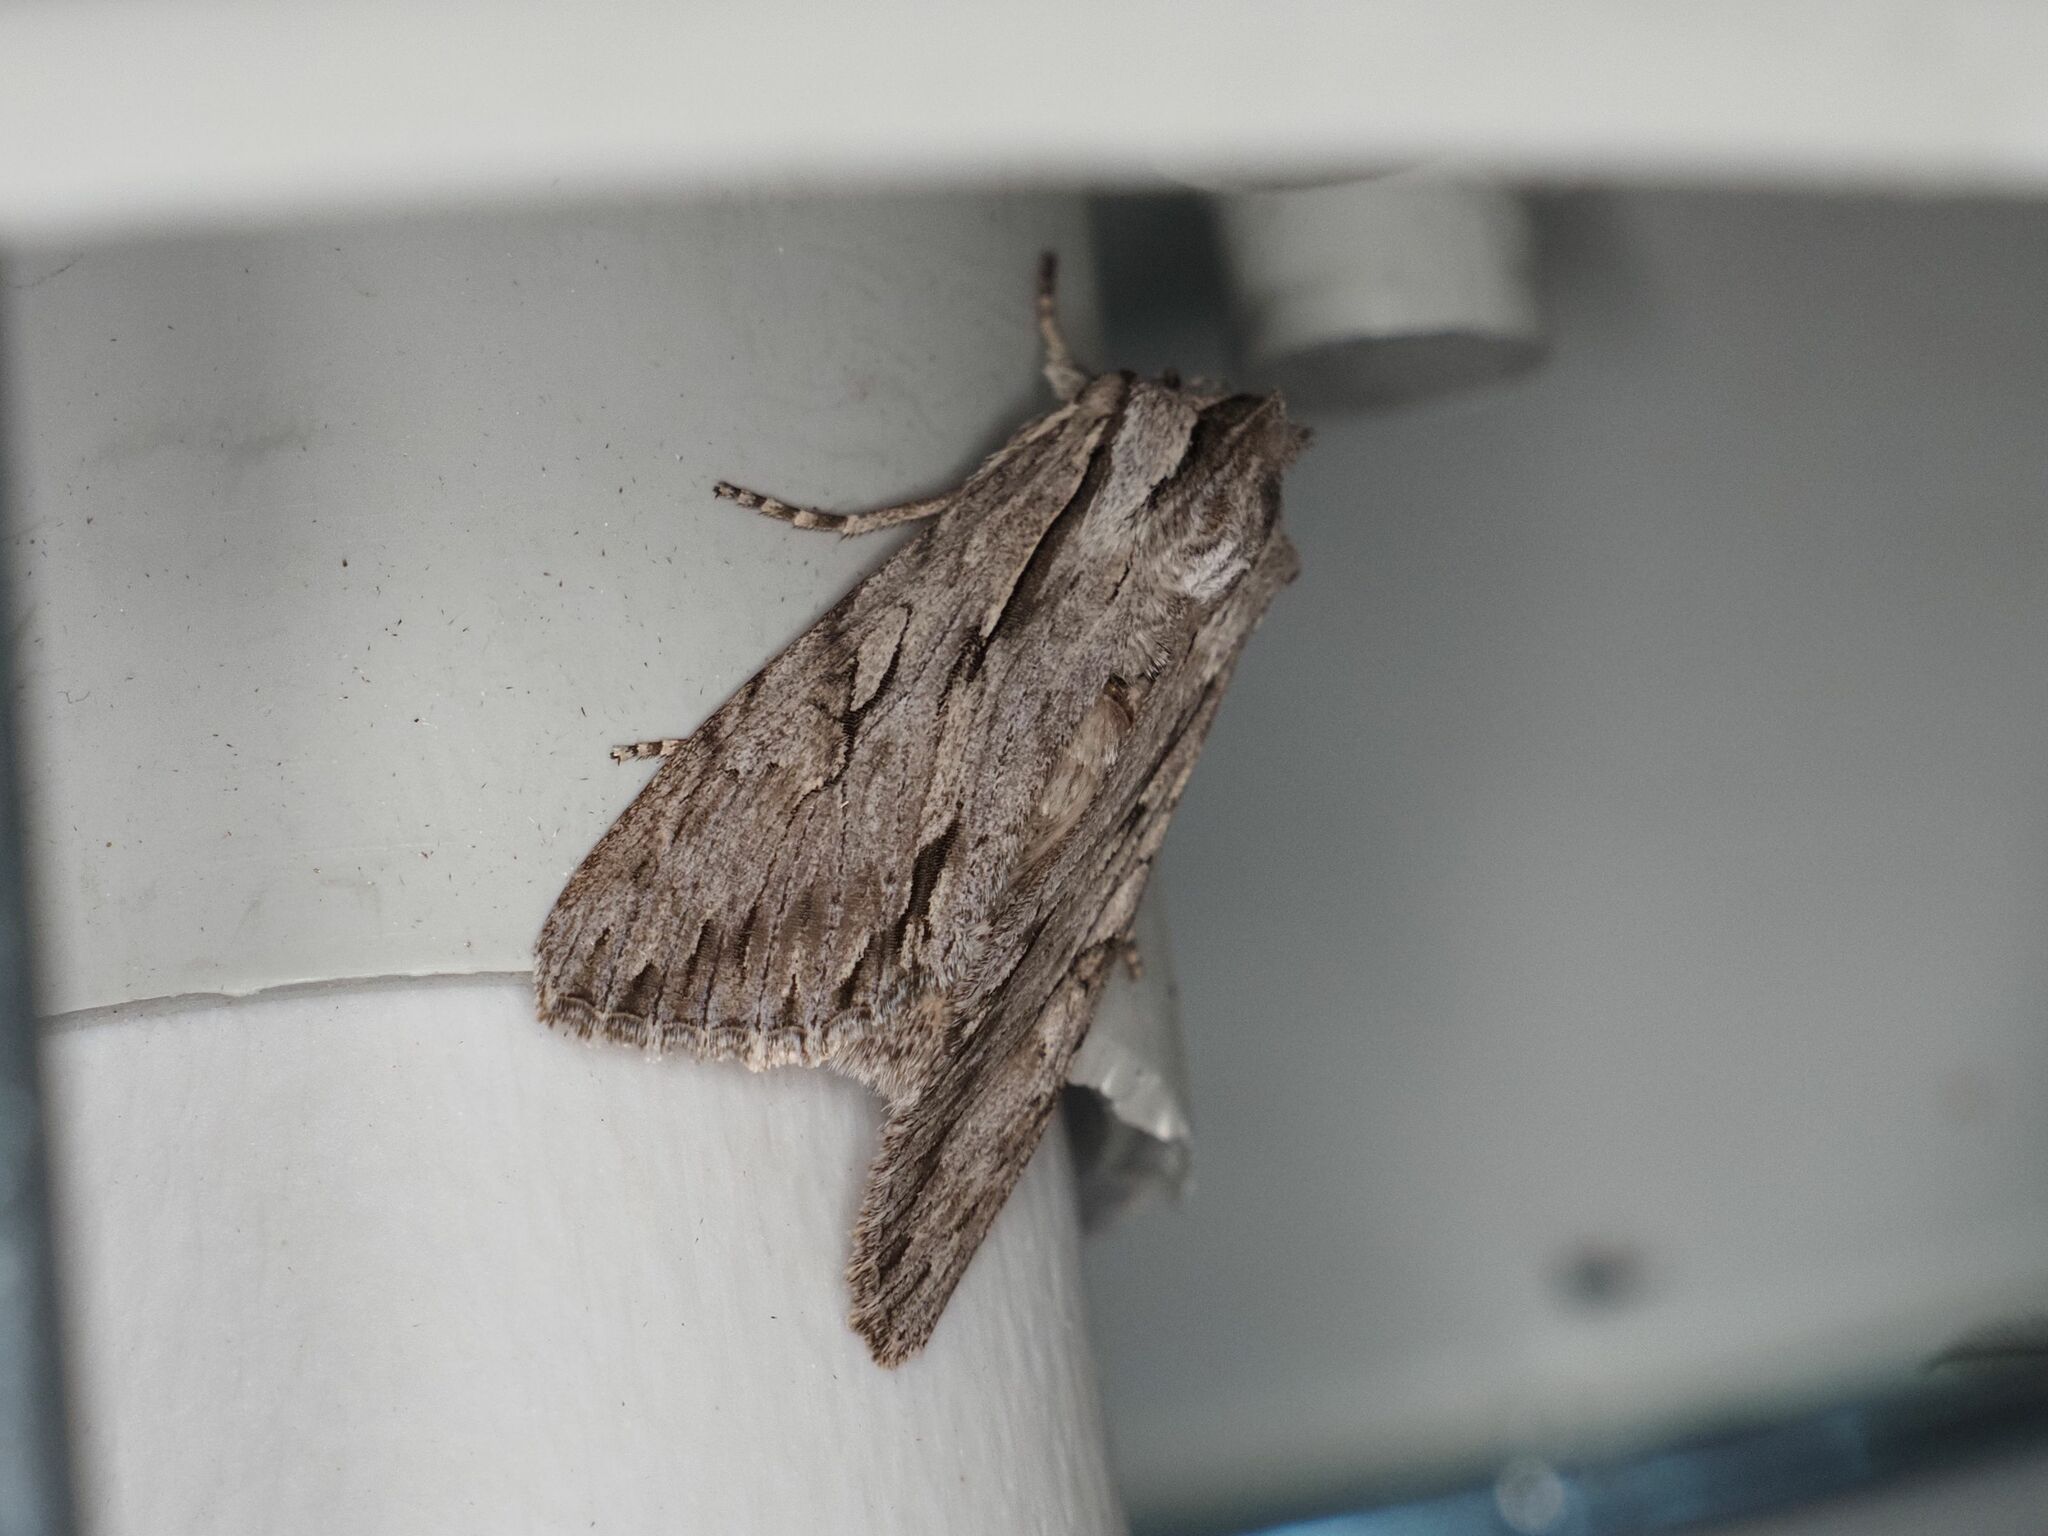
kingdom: Animalia
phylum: Arthropoda
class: Insecta
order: Lepidoptera
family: Noctuidae
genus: Auchmis
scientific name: Auchmis detersa
